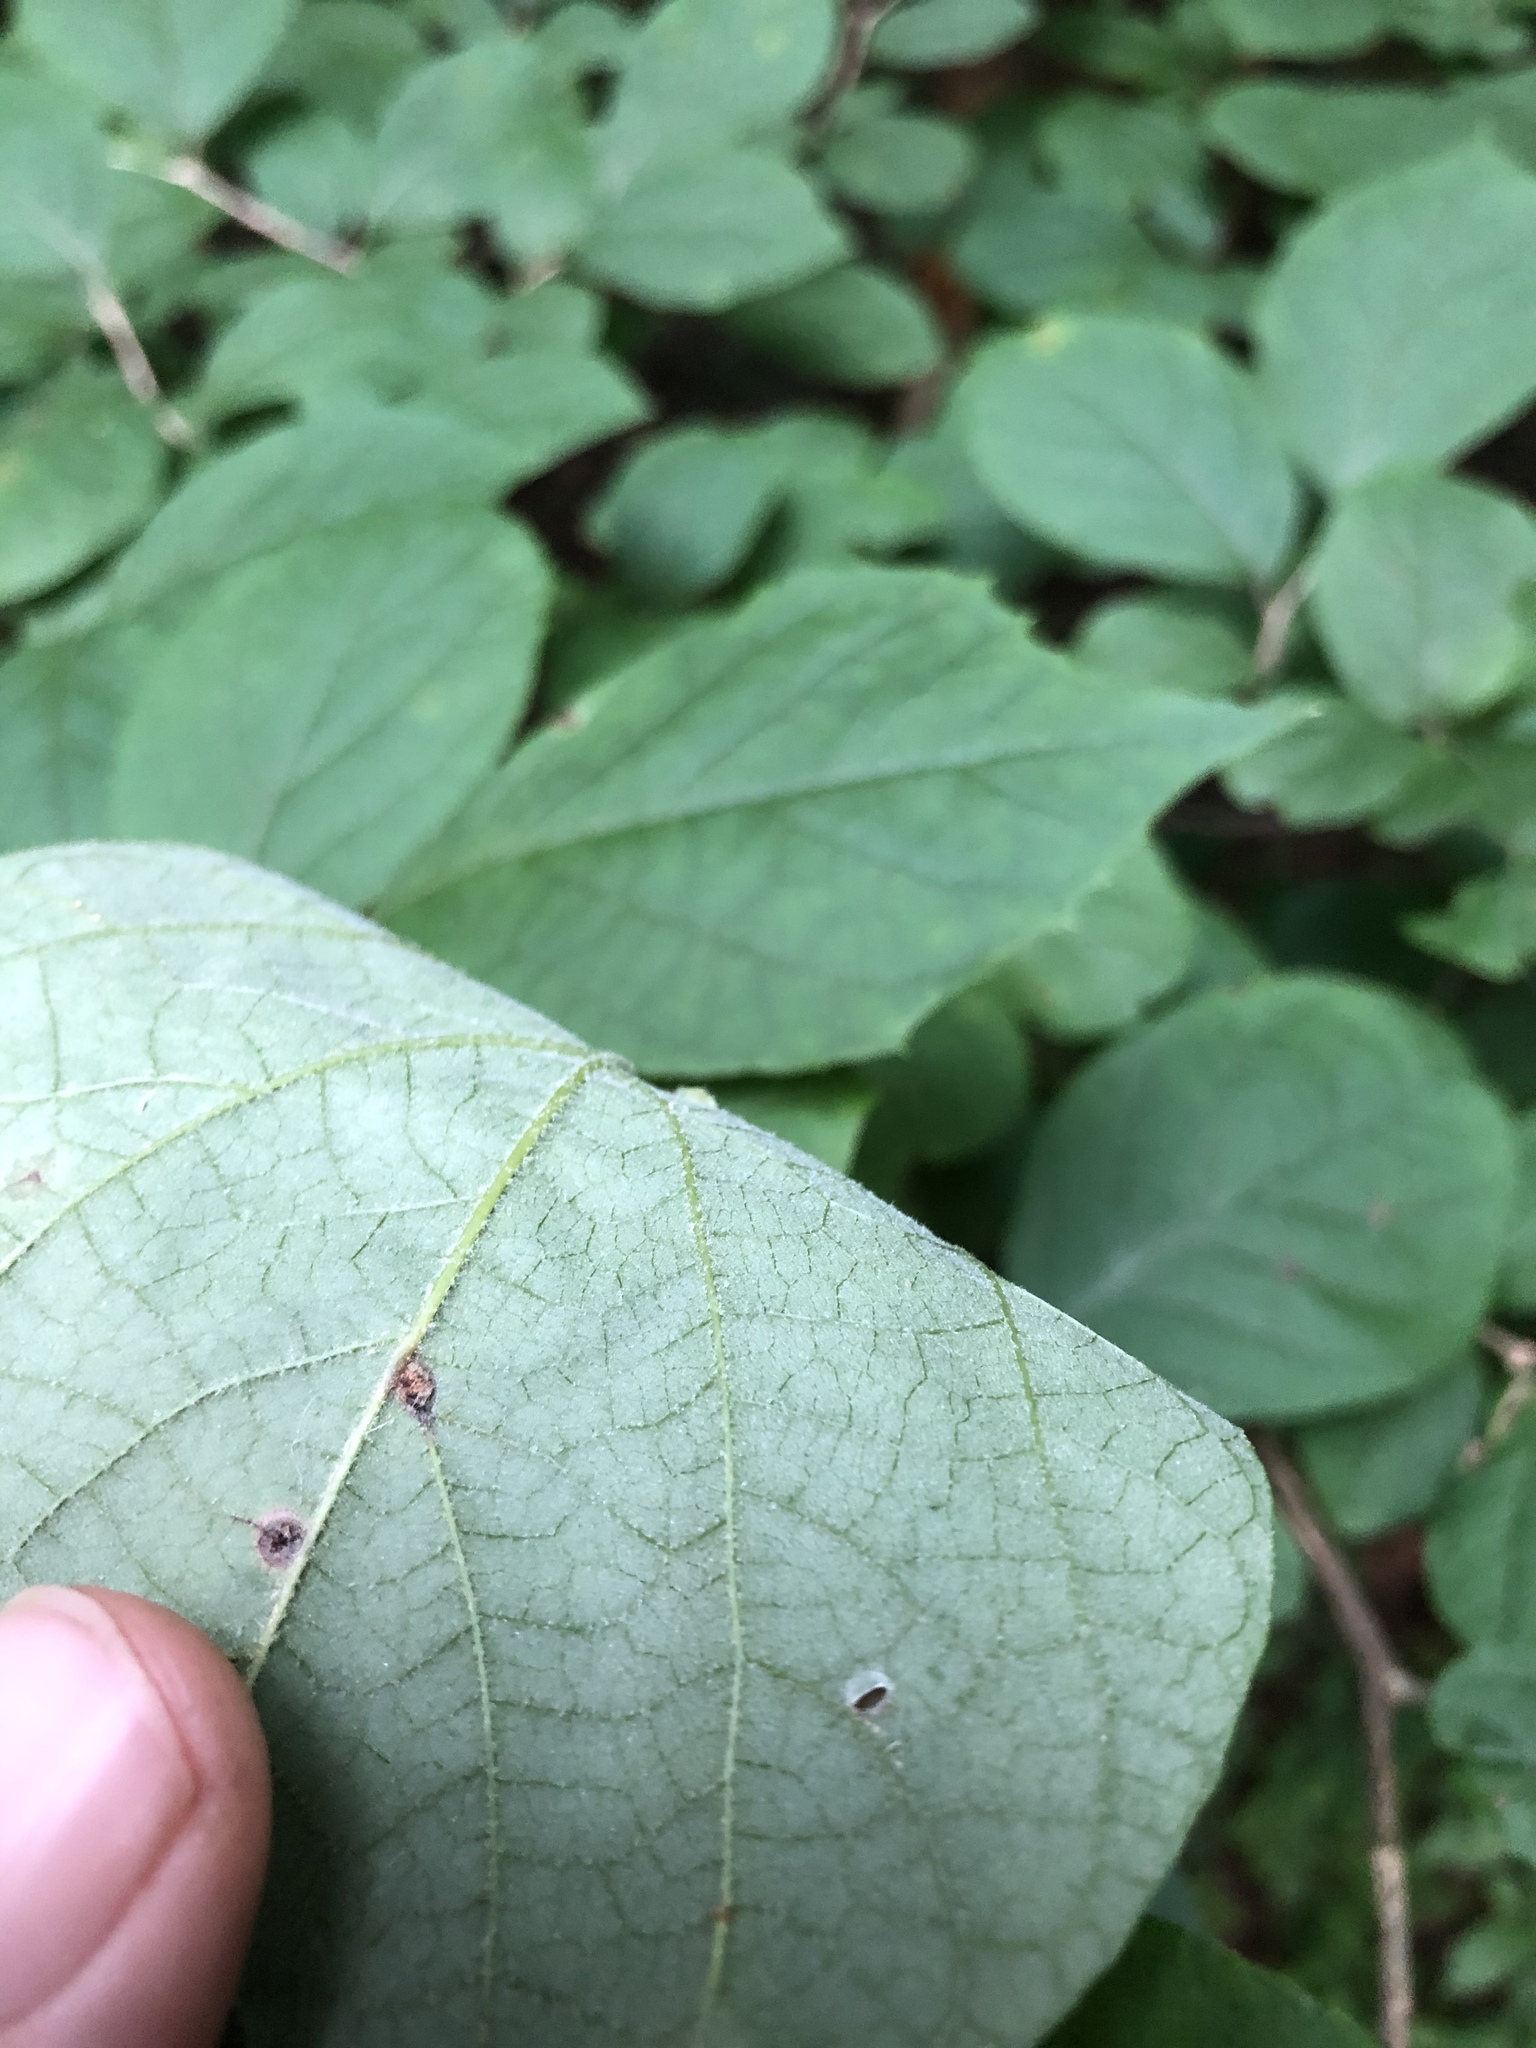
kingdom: Plantae
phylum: Tracheophyta
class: Magnoliopsida
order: Ericales
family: Styracaceae
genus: Styrax
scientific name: Styrax grandifolius
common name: Big-leaf snowbell
